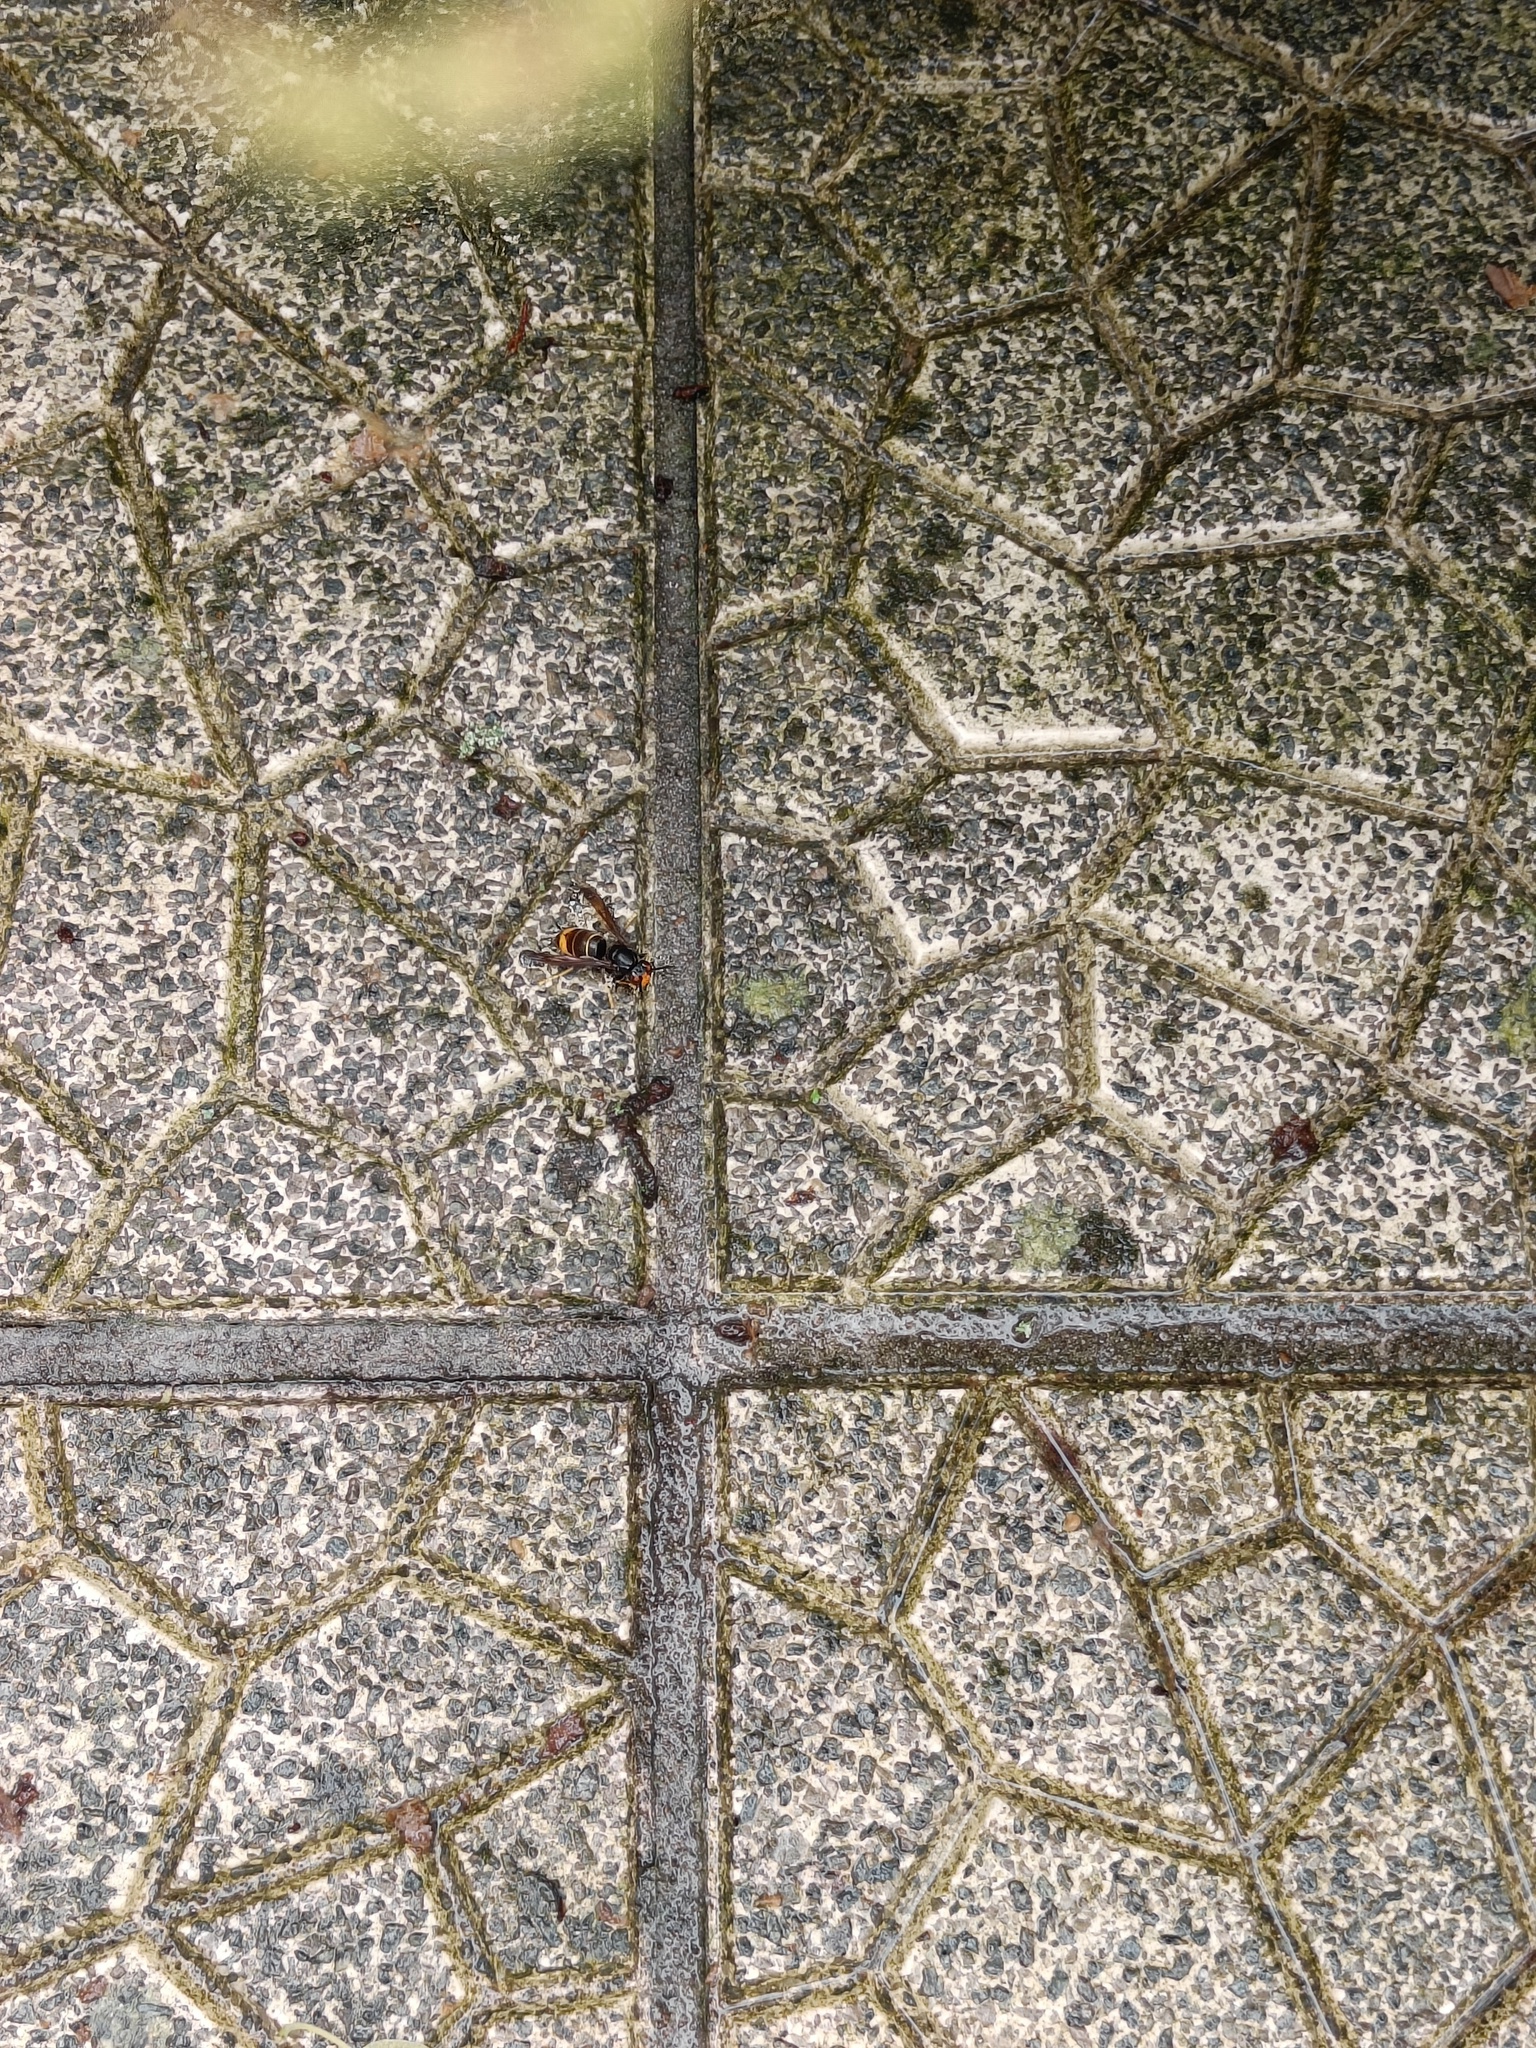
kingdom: Animalia
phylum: Arthropoda
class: Insecta
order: Hymenoptera
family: Vespidae
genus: Vespa
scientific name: Vespa velutina
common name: Asian hornet
